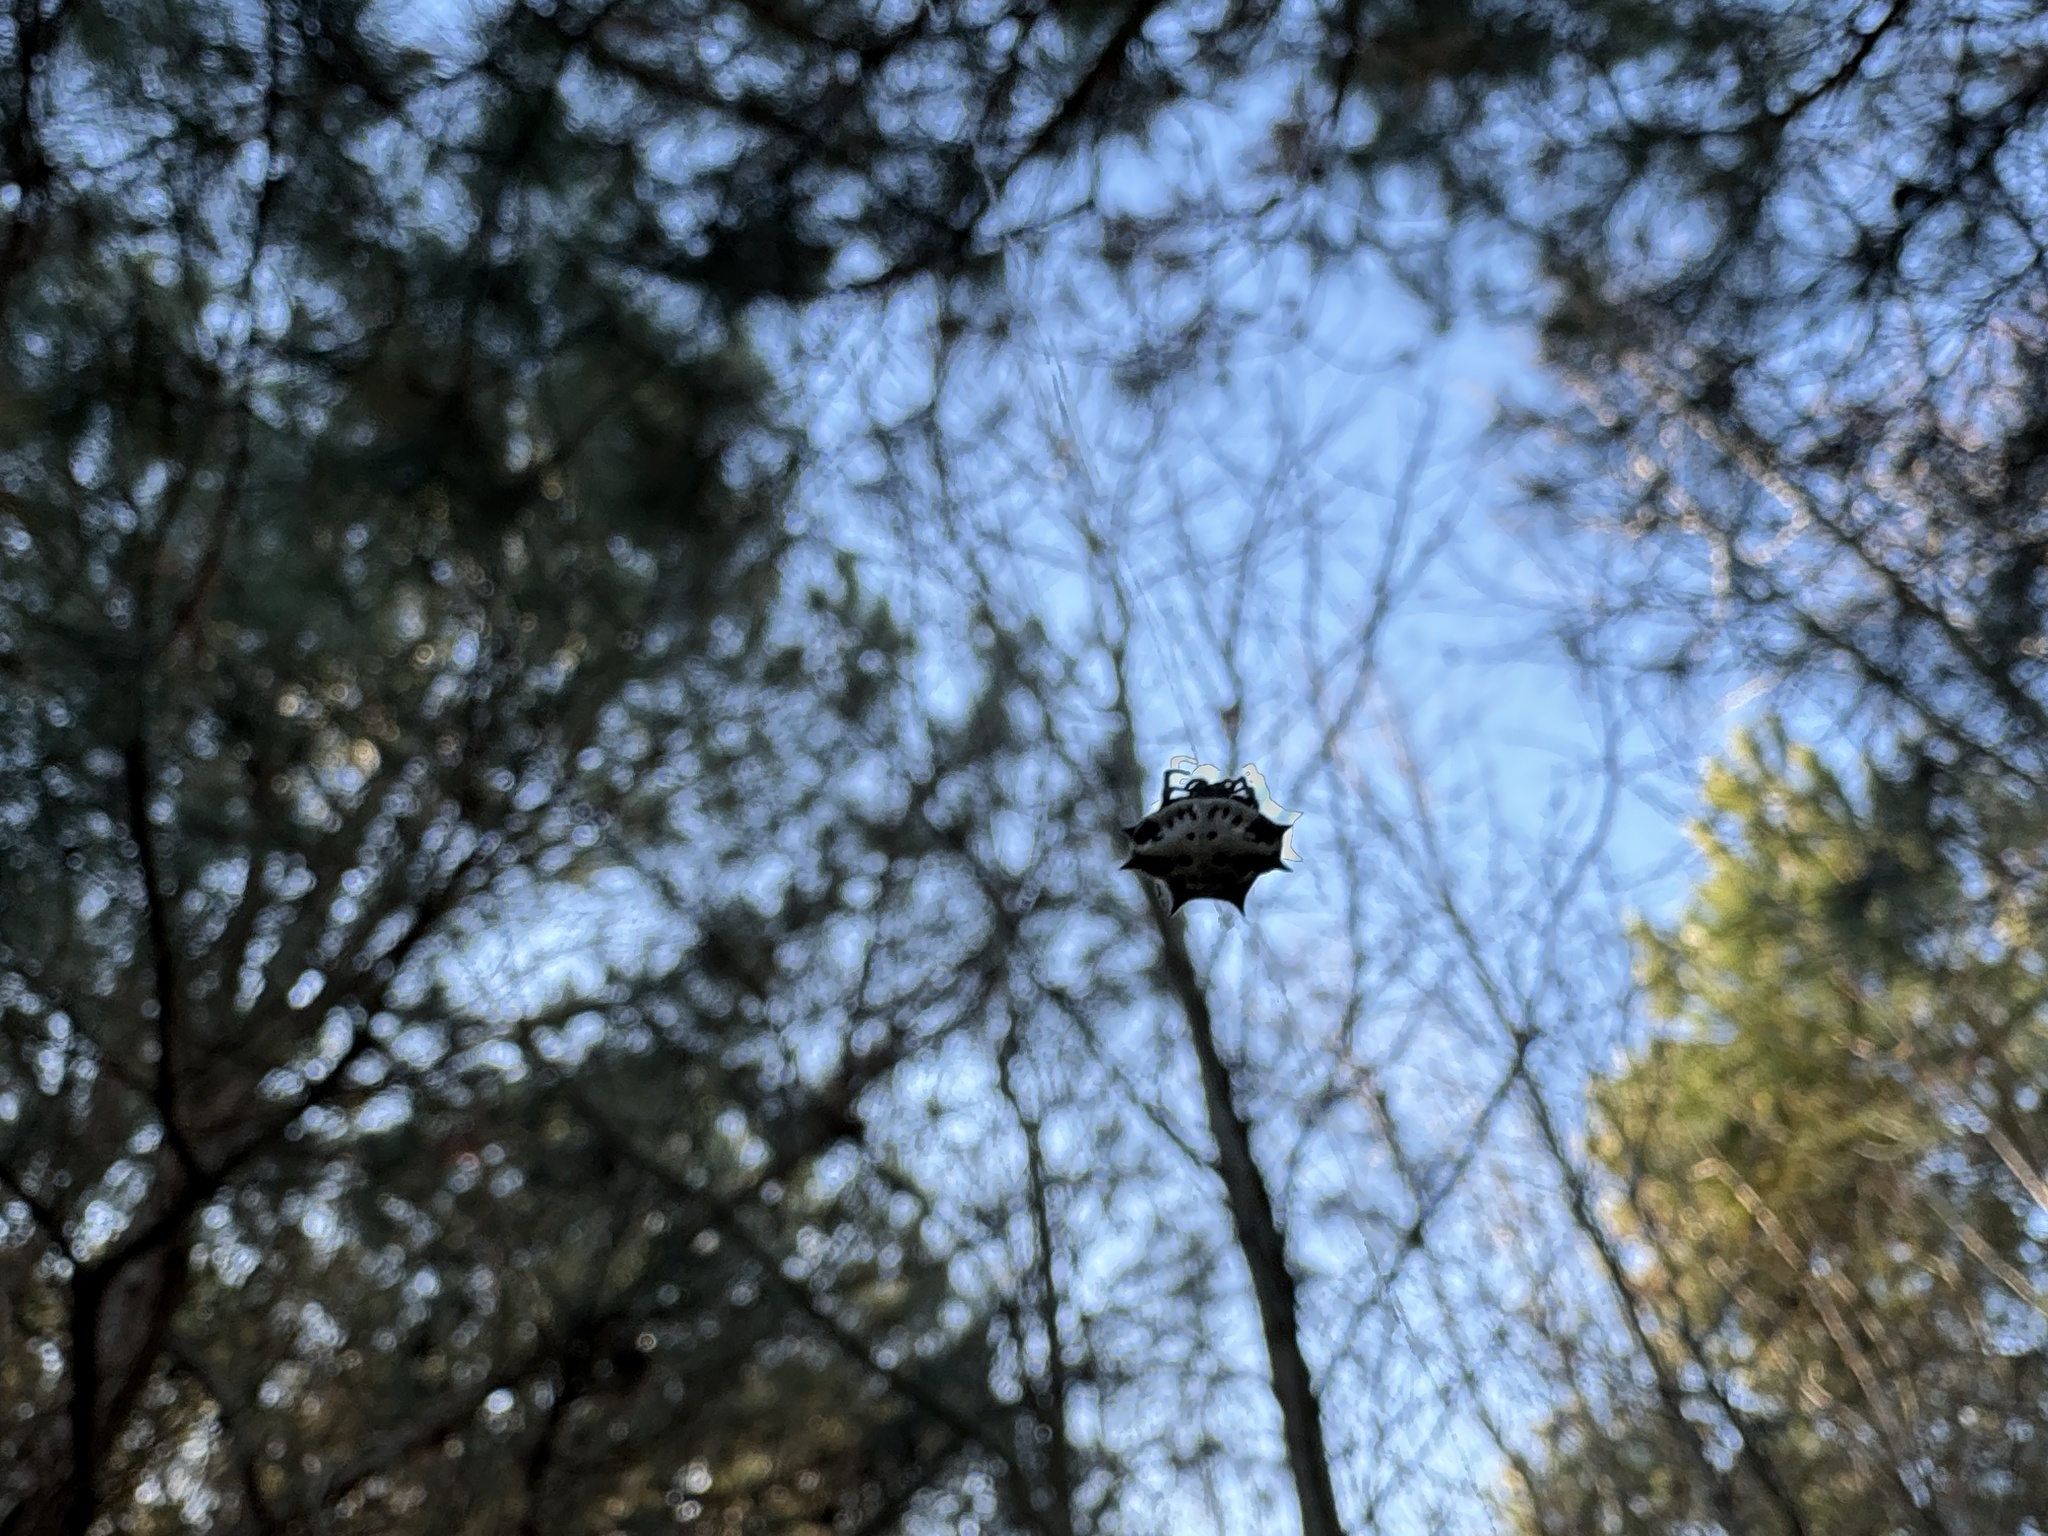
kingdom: Animalia
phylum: Arthropoda
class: Arachnida
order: Araneae
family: Araneidae
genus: Gasteracantha
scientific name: Gasteracantha cancriformis
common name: Orb weavers
